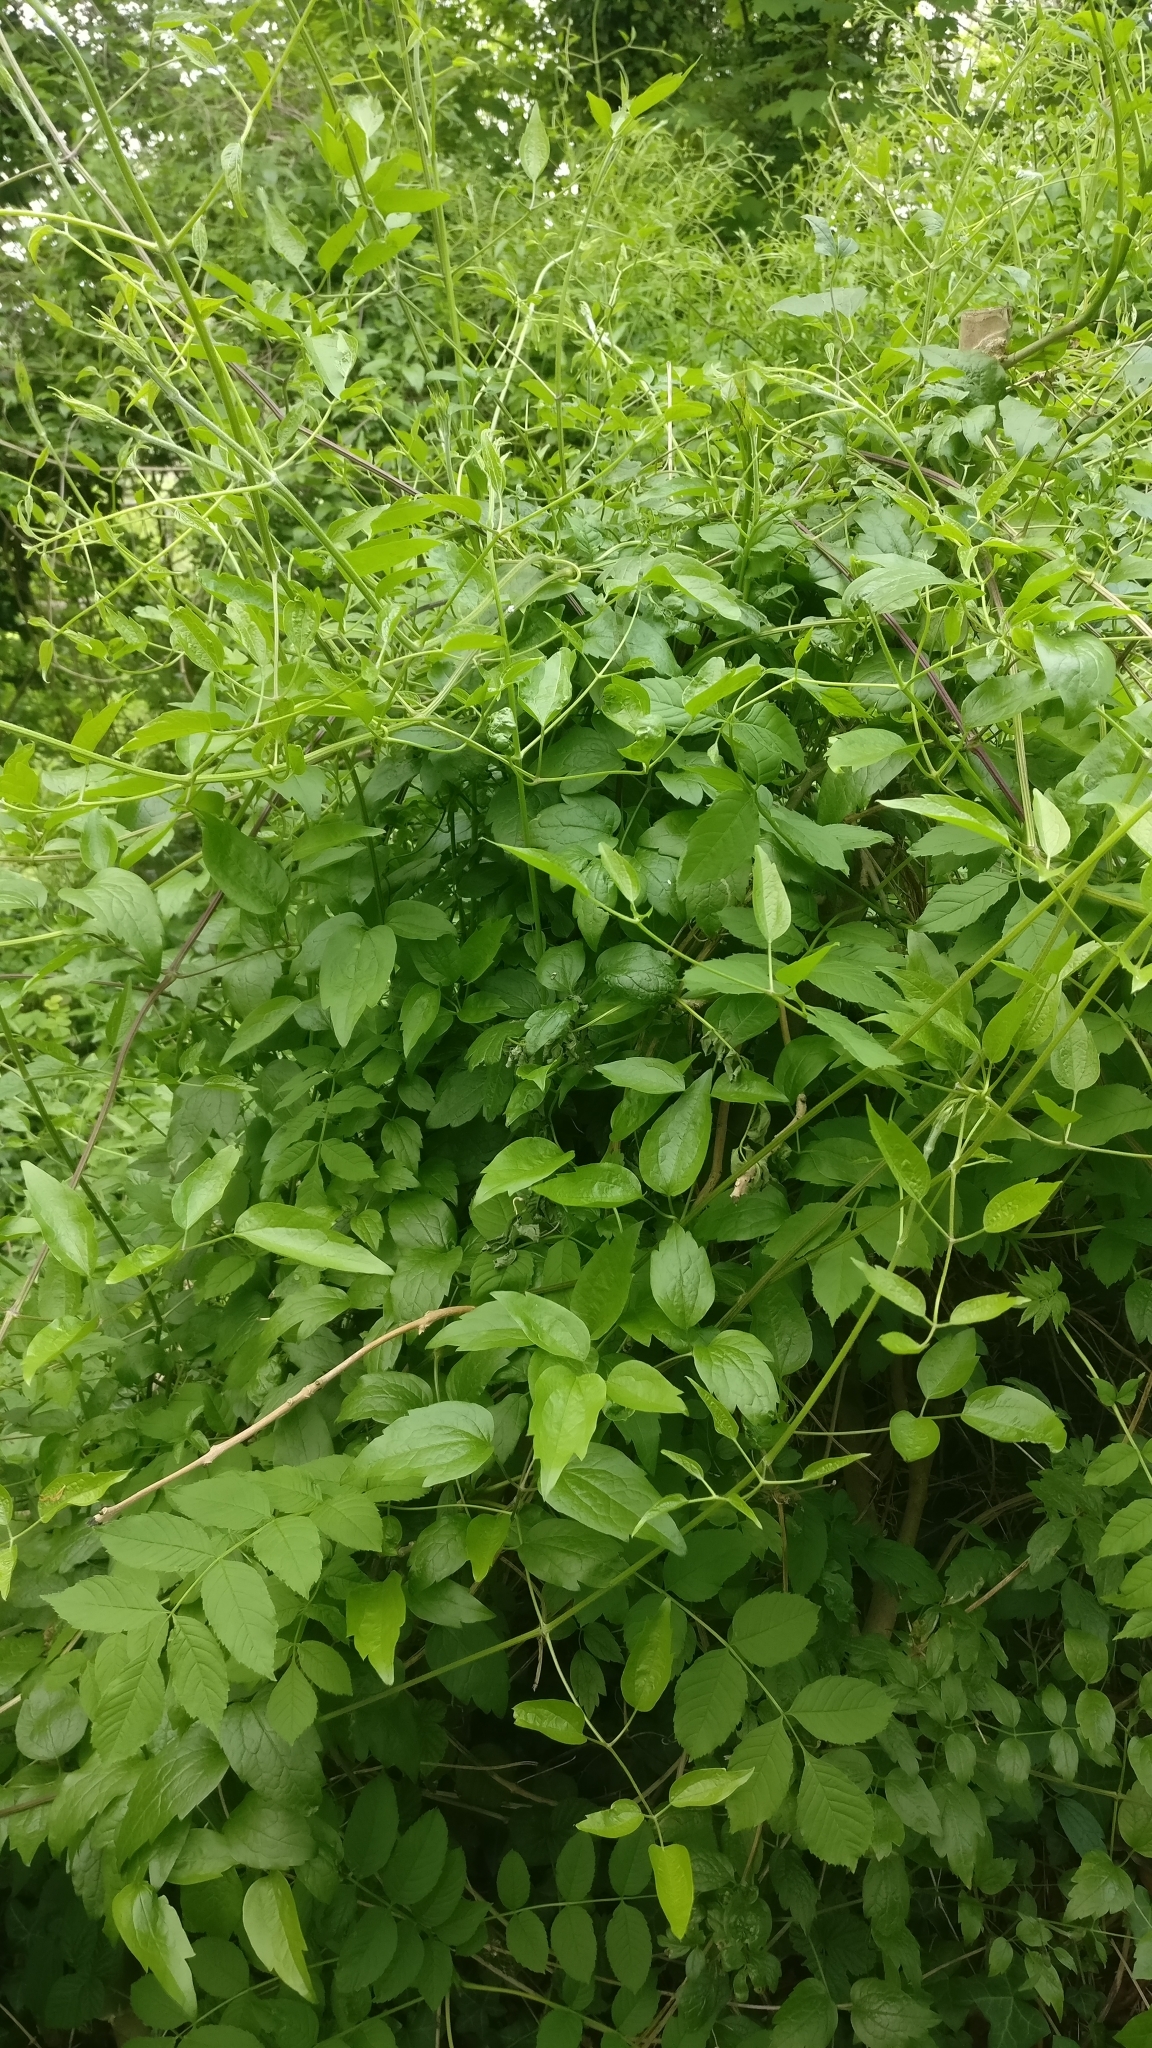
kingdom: Plantae
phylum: Tracheophyta
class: Magnoliopsida
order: Ranunculales
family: Ranunculaceae
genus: Clematis
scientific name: Clematis vitalba
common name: Evergreen clematis
